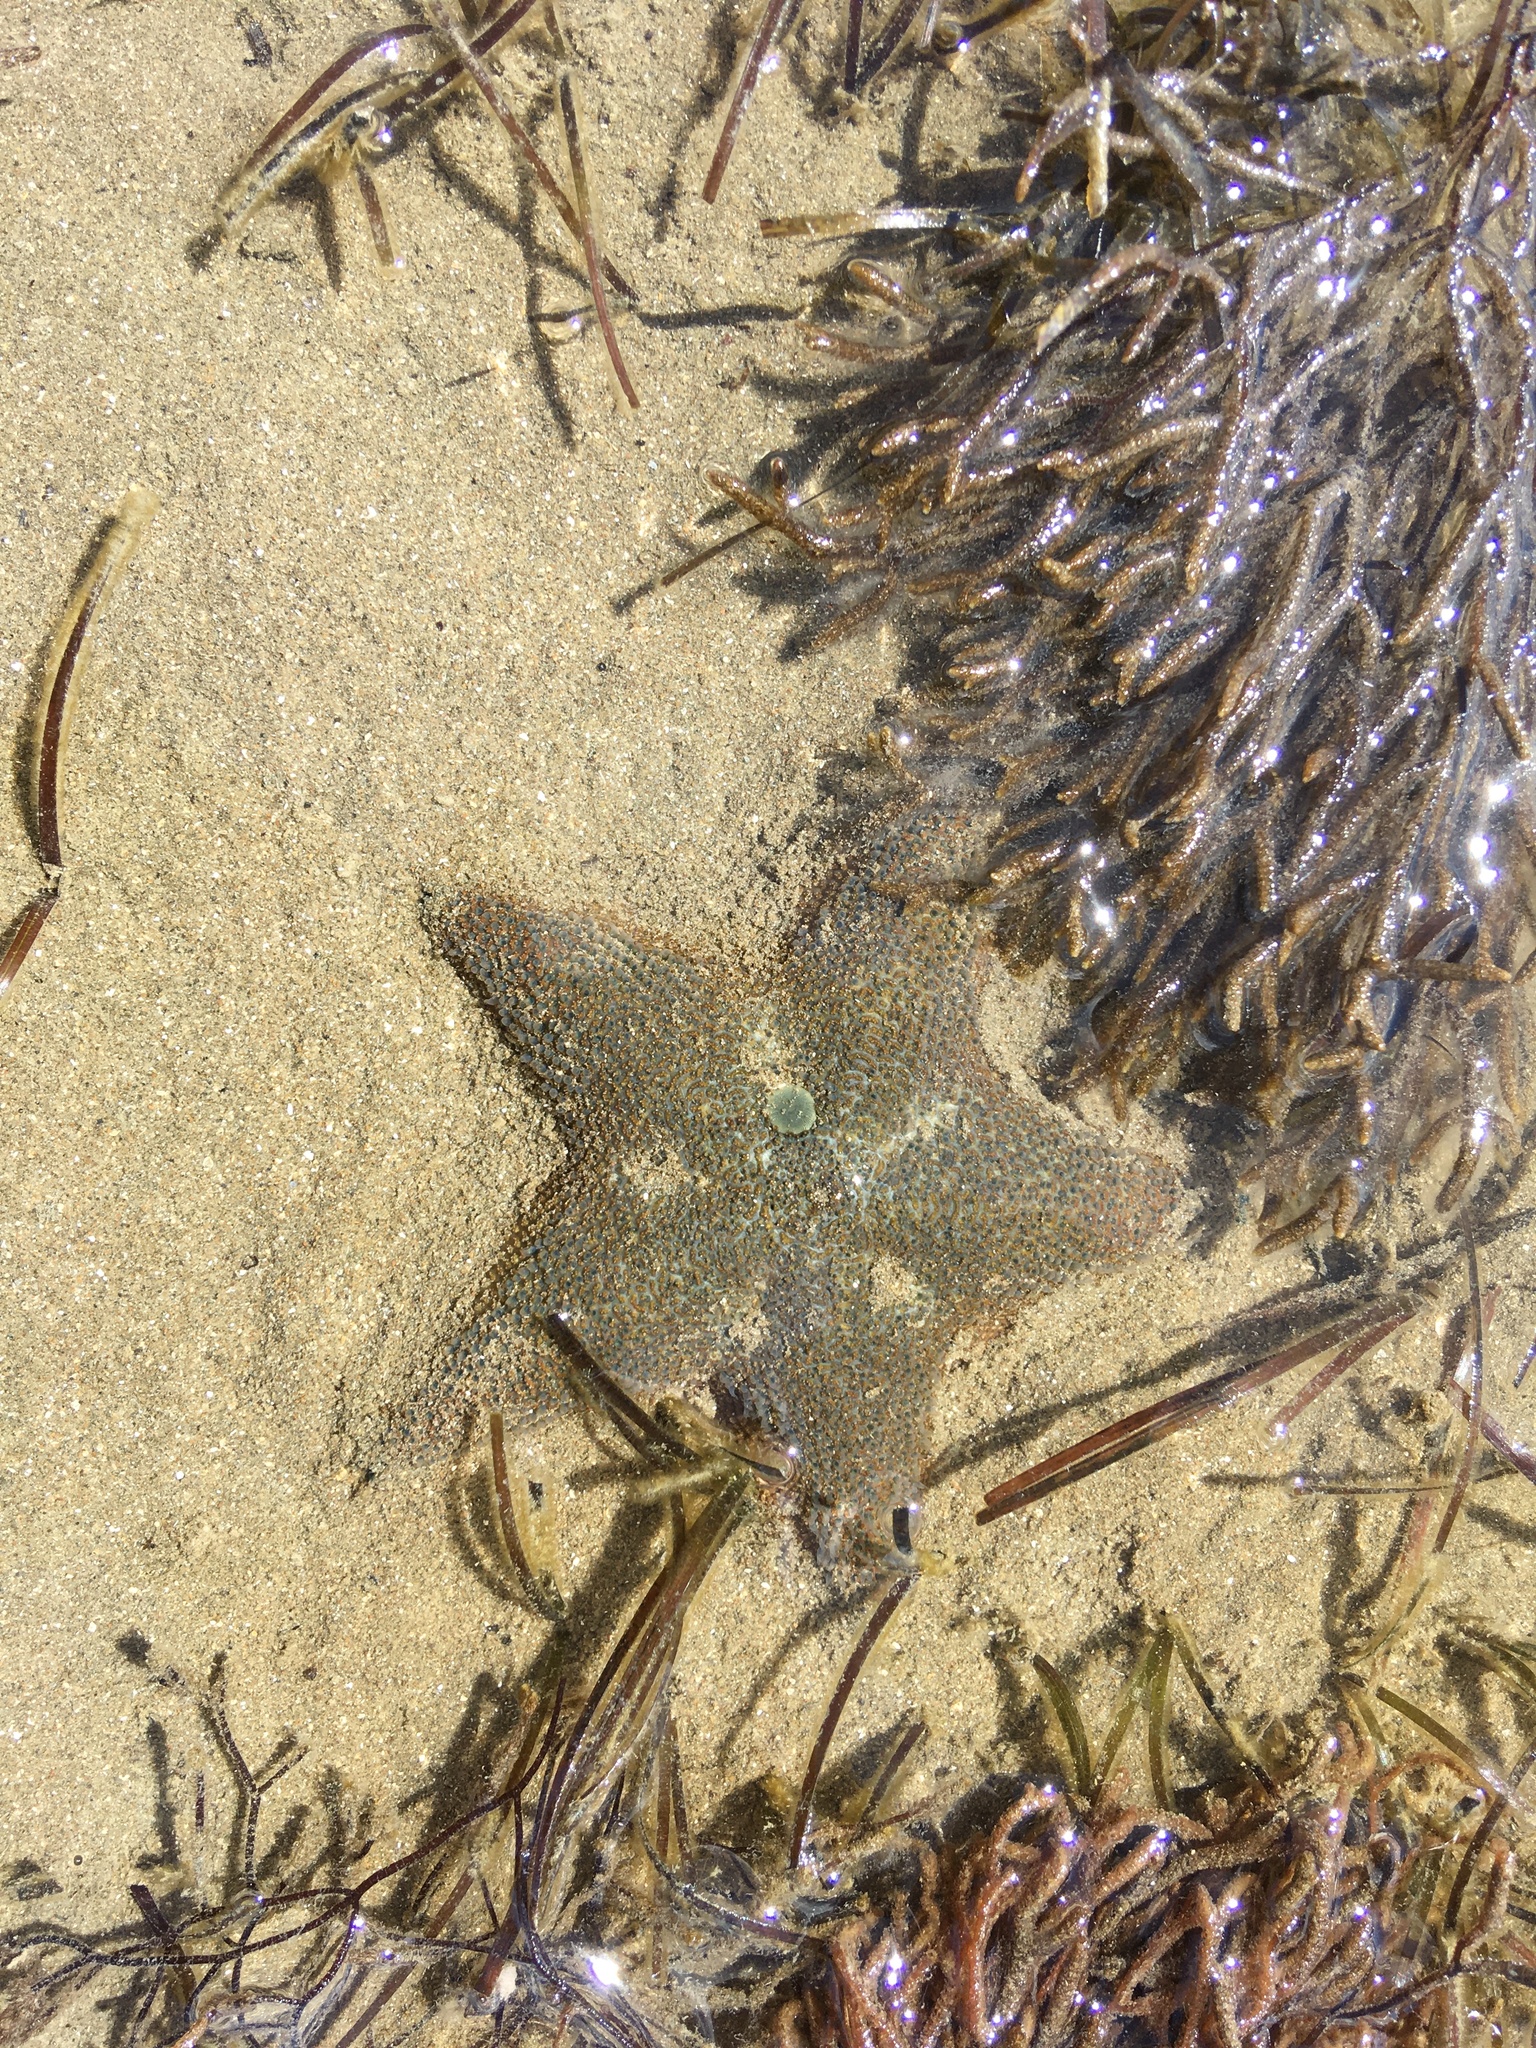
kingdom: Animalia
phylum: Echinodermata
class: Asteroidea
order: Valvatida
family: Asterinidae
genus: Patiriella
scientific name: Patiriella regularis
